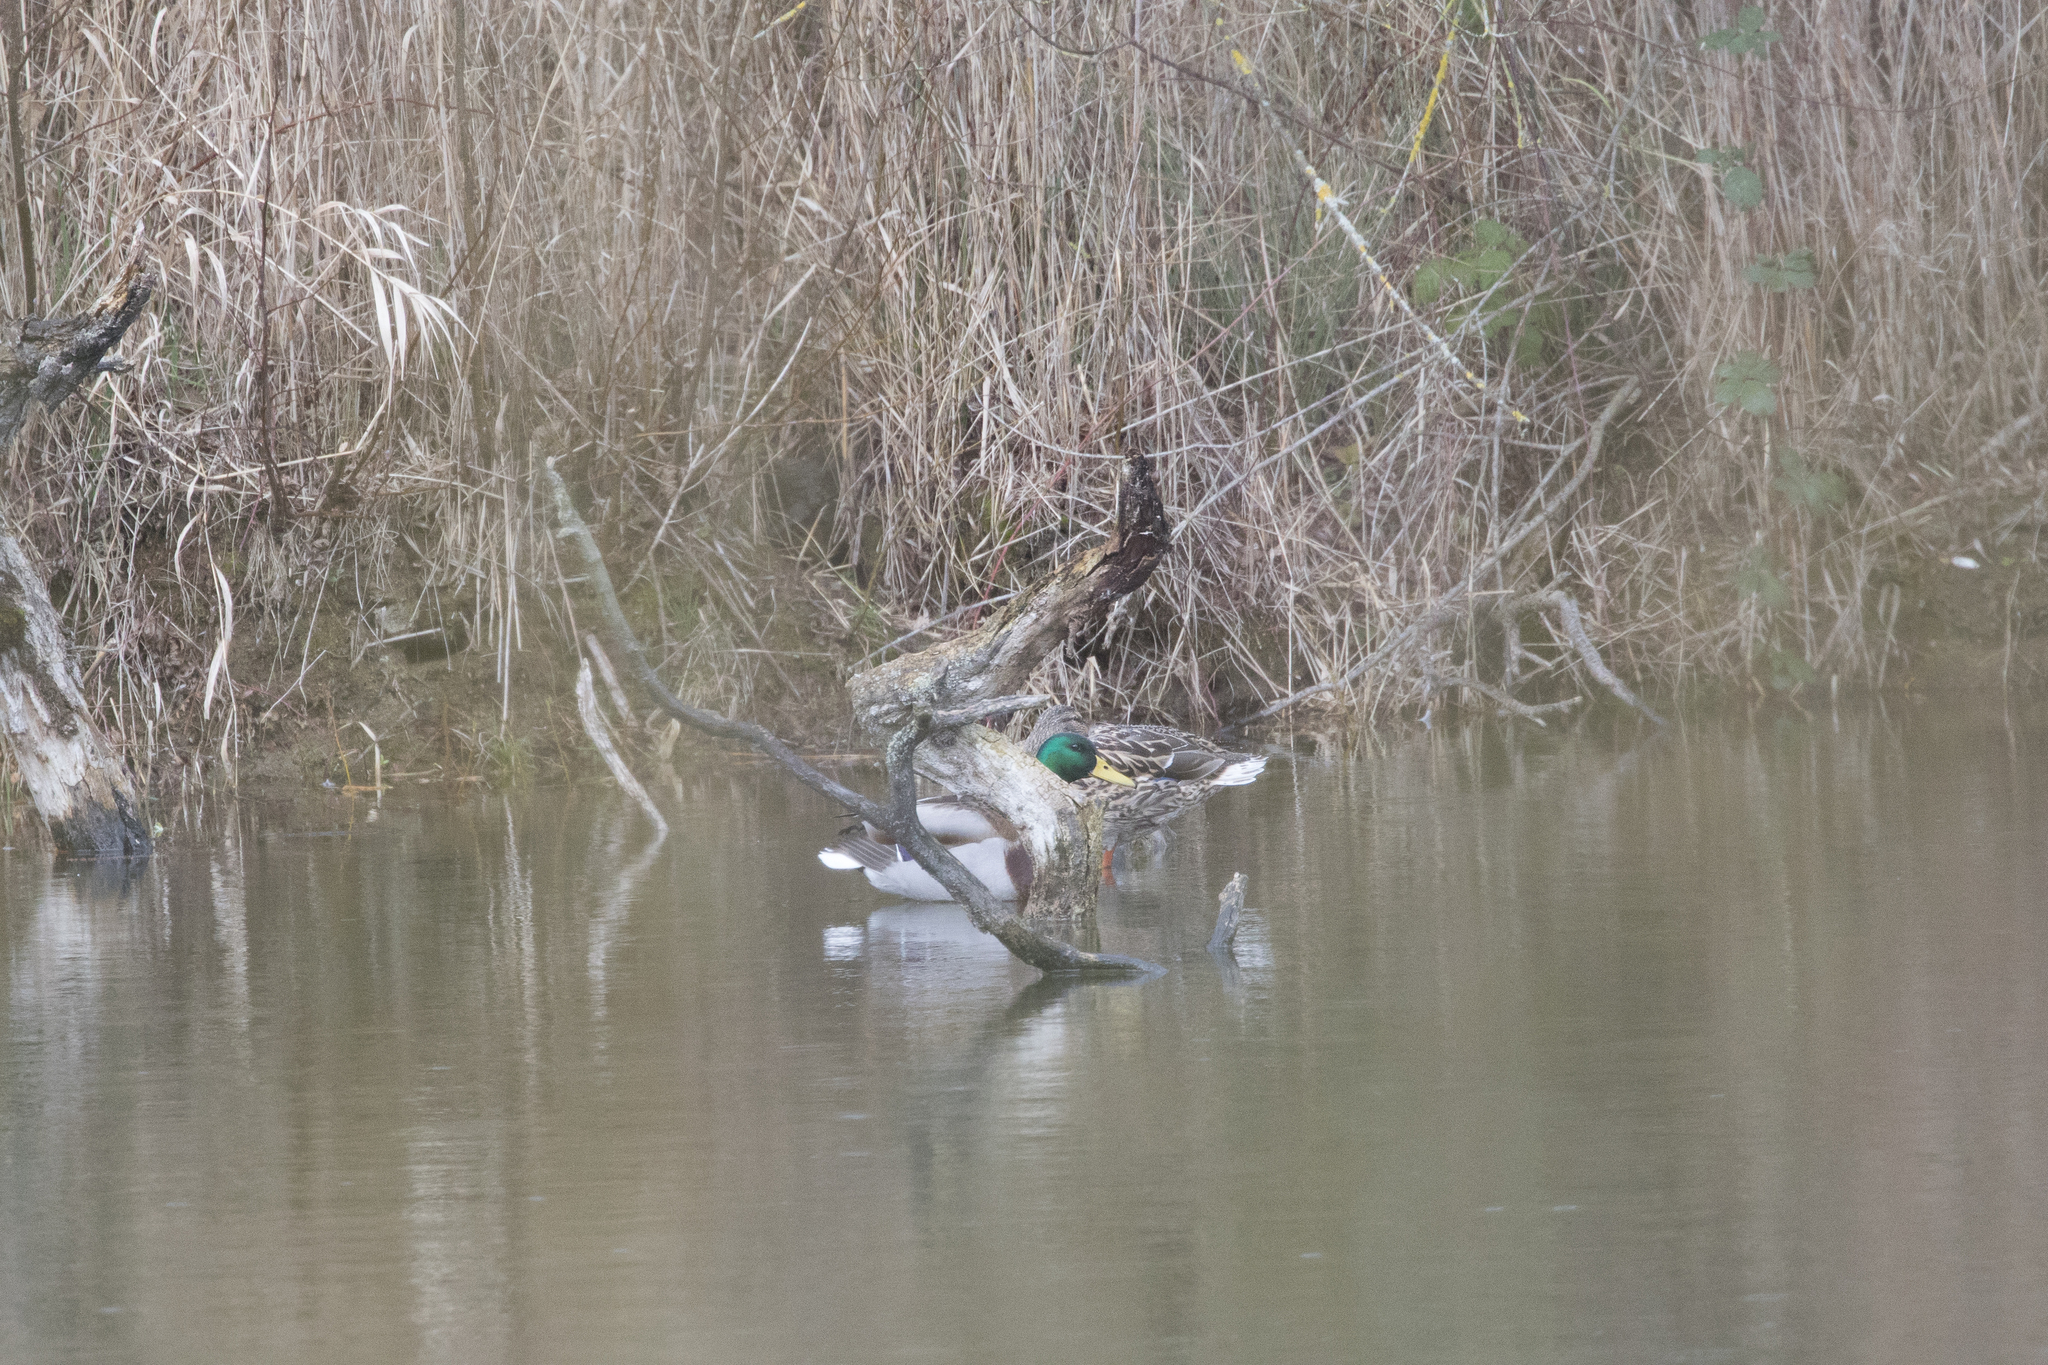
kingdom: Animalia
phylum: Chordata
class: Aves
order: Anseriformes
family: Anatidae
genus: Anas
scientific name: Anas platyrhynchos
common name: Mallard
